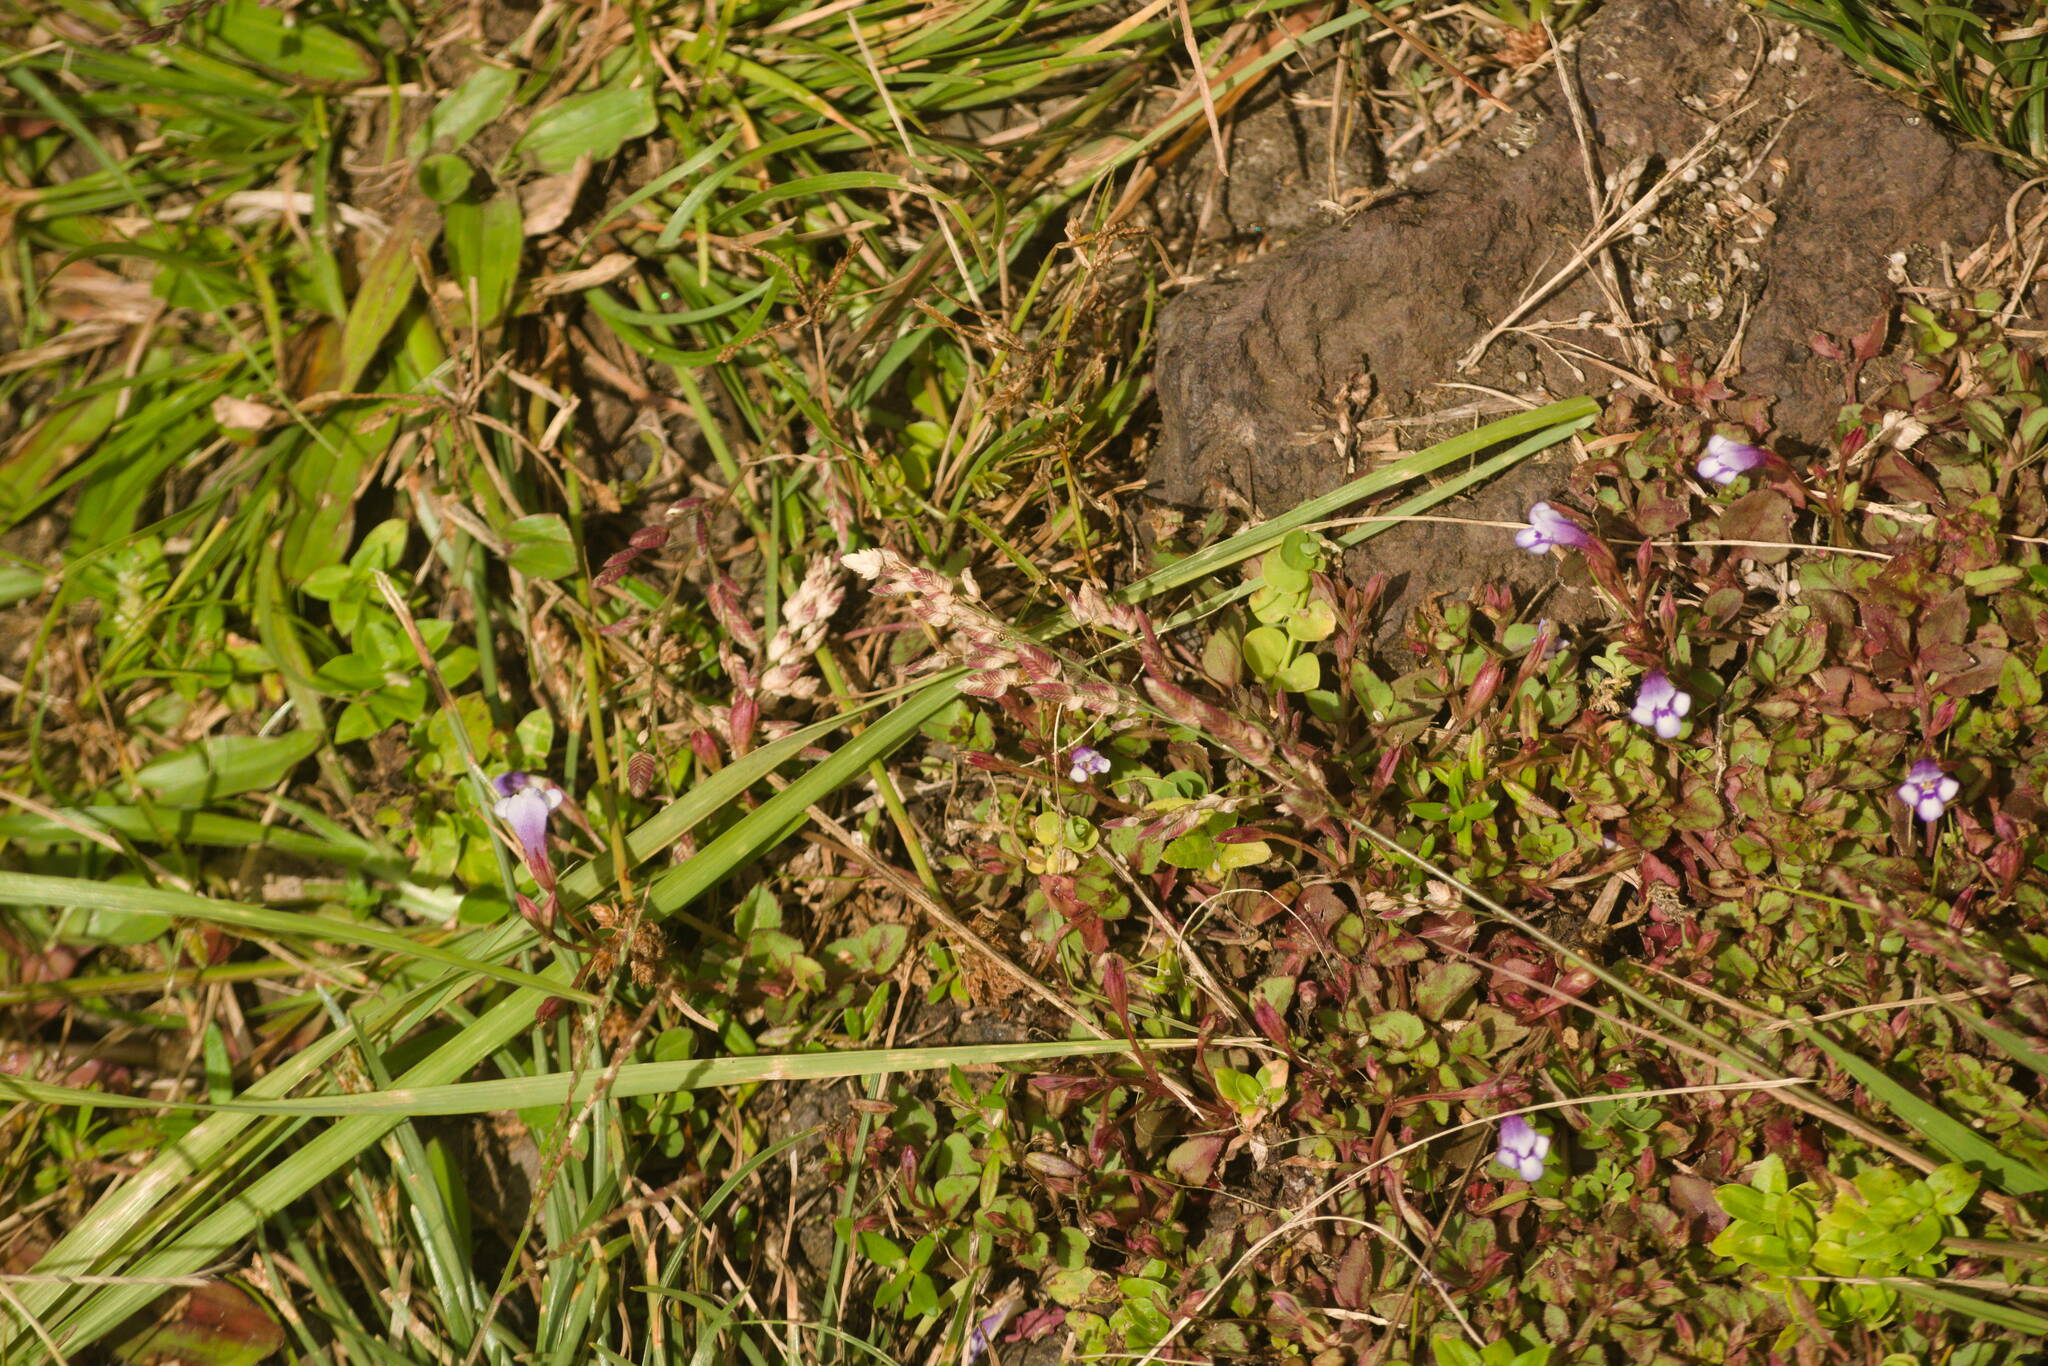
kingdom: Plantae
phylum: Tracheophyta
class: Magnoliopsida
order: Lamiales
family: Linderniaceae
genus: Torenia
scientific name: Torenia crustacea
